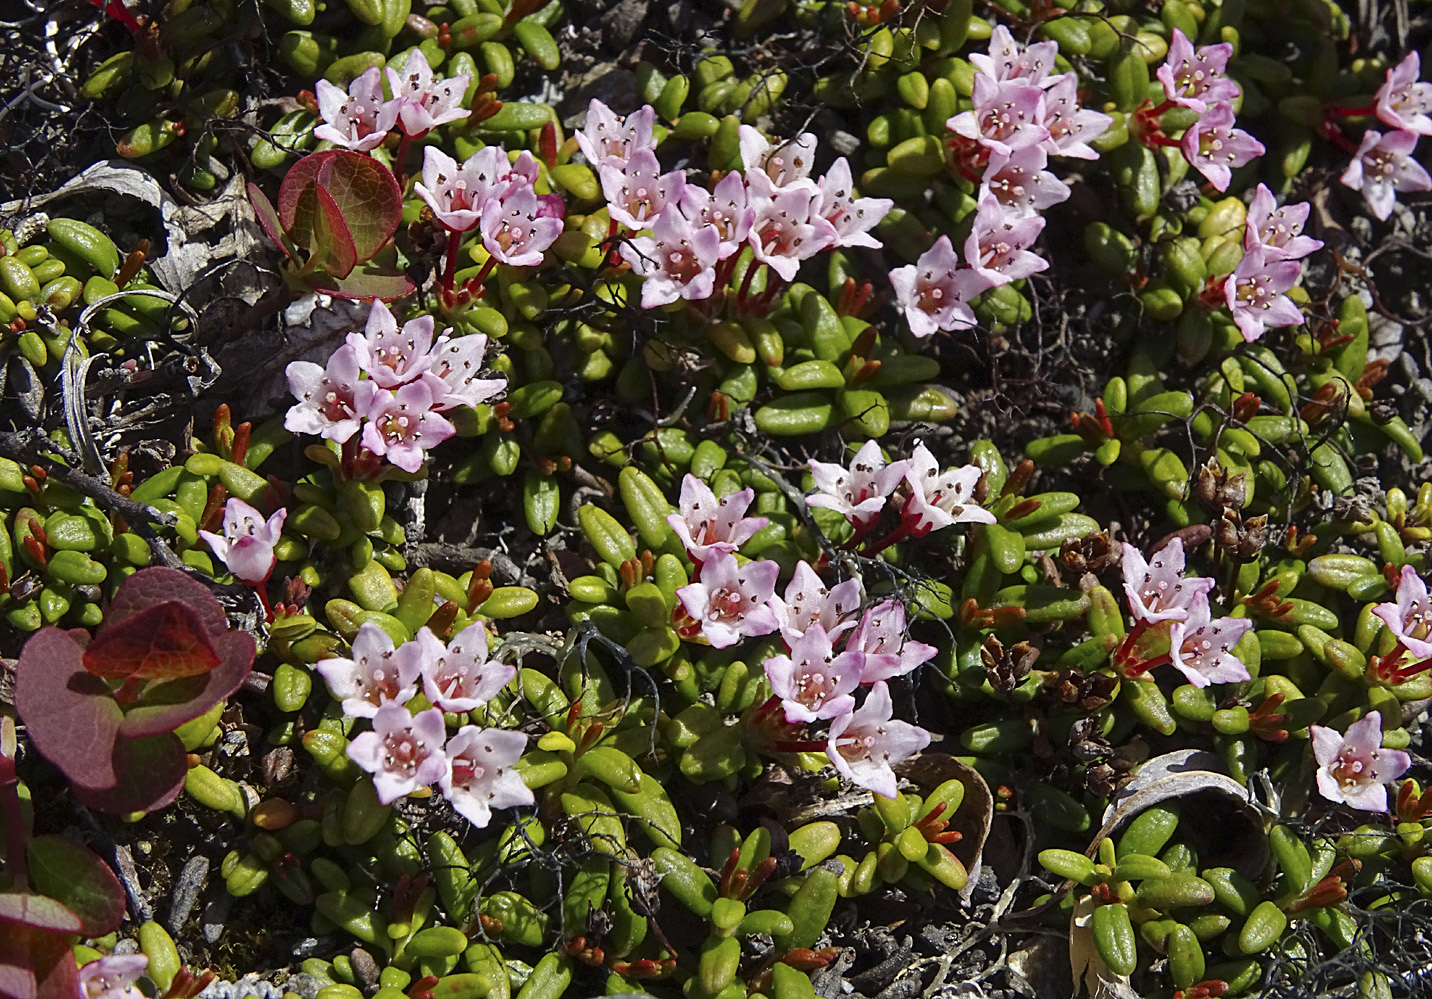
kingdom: Plantae
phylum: Tracheophyta
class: Magnoliopsida
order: Ericales
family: Ericaceae
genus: Kalmia
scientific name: Kalmia procumbens
